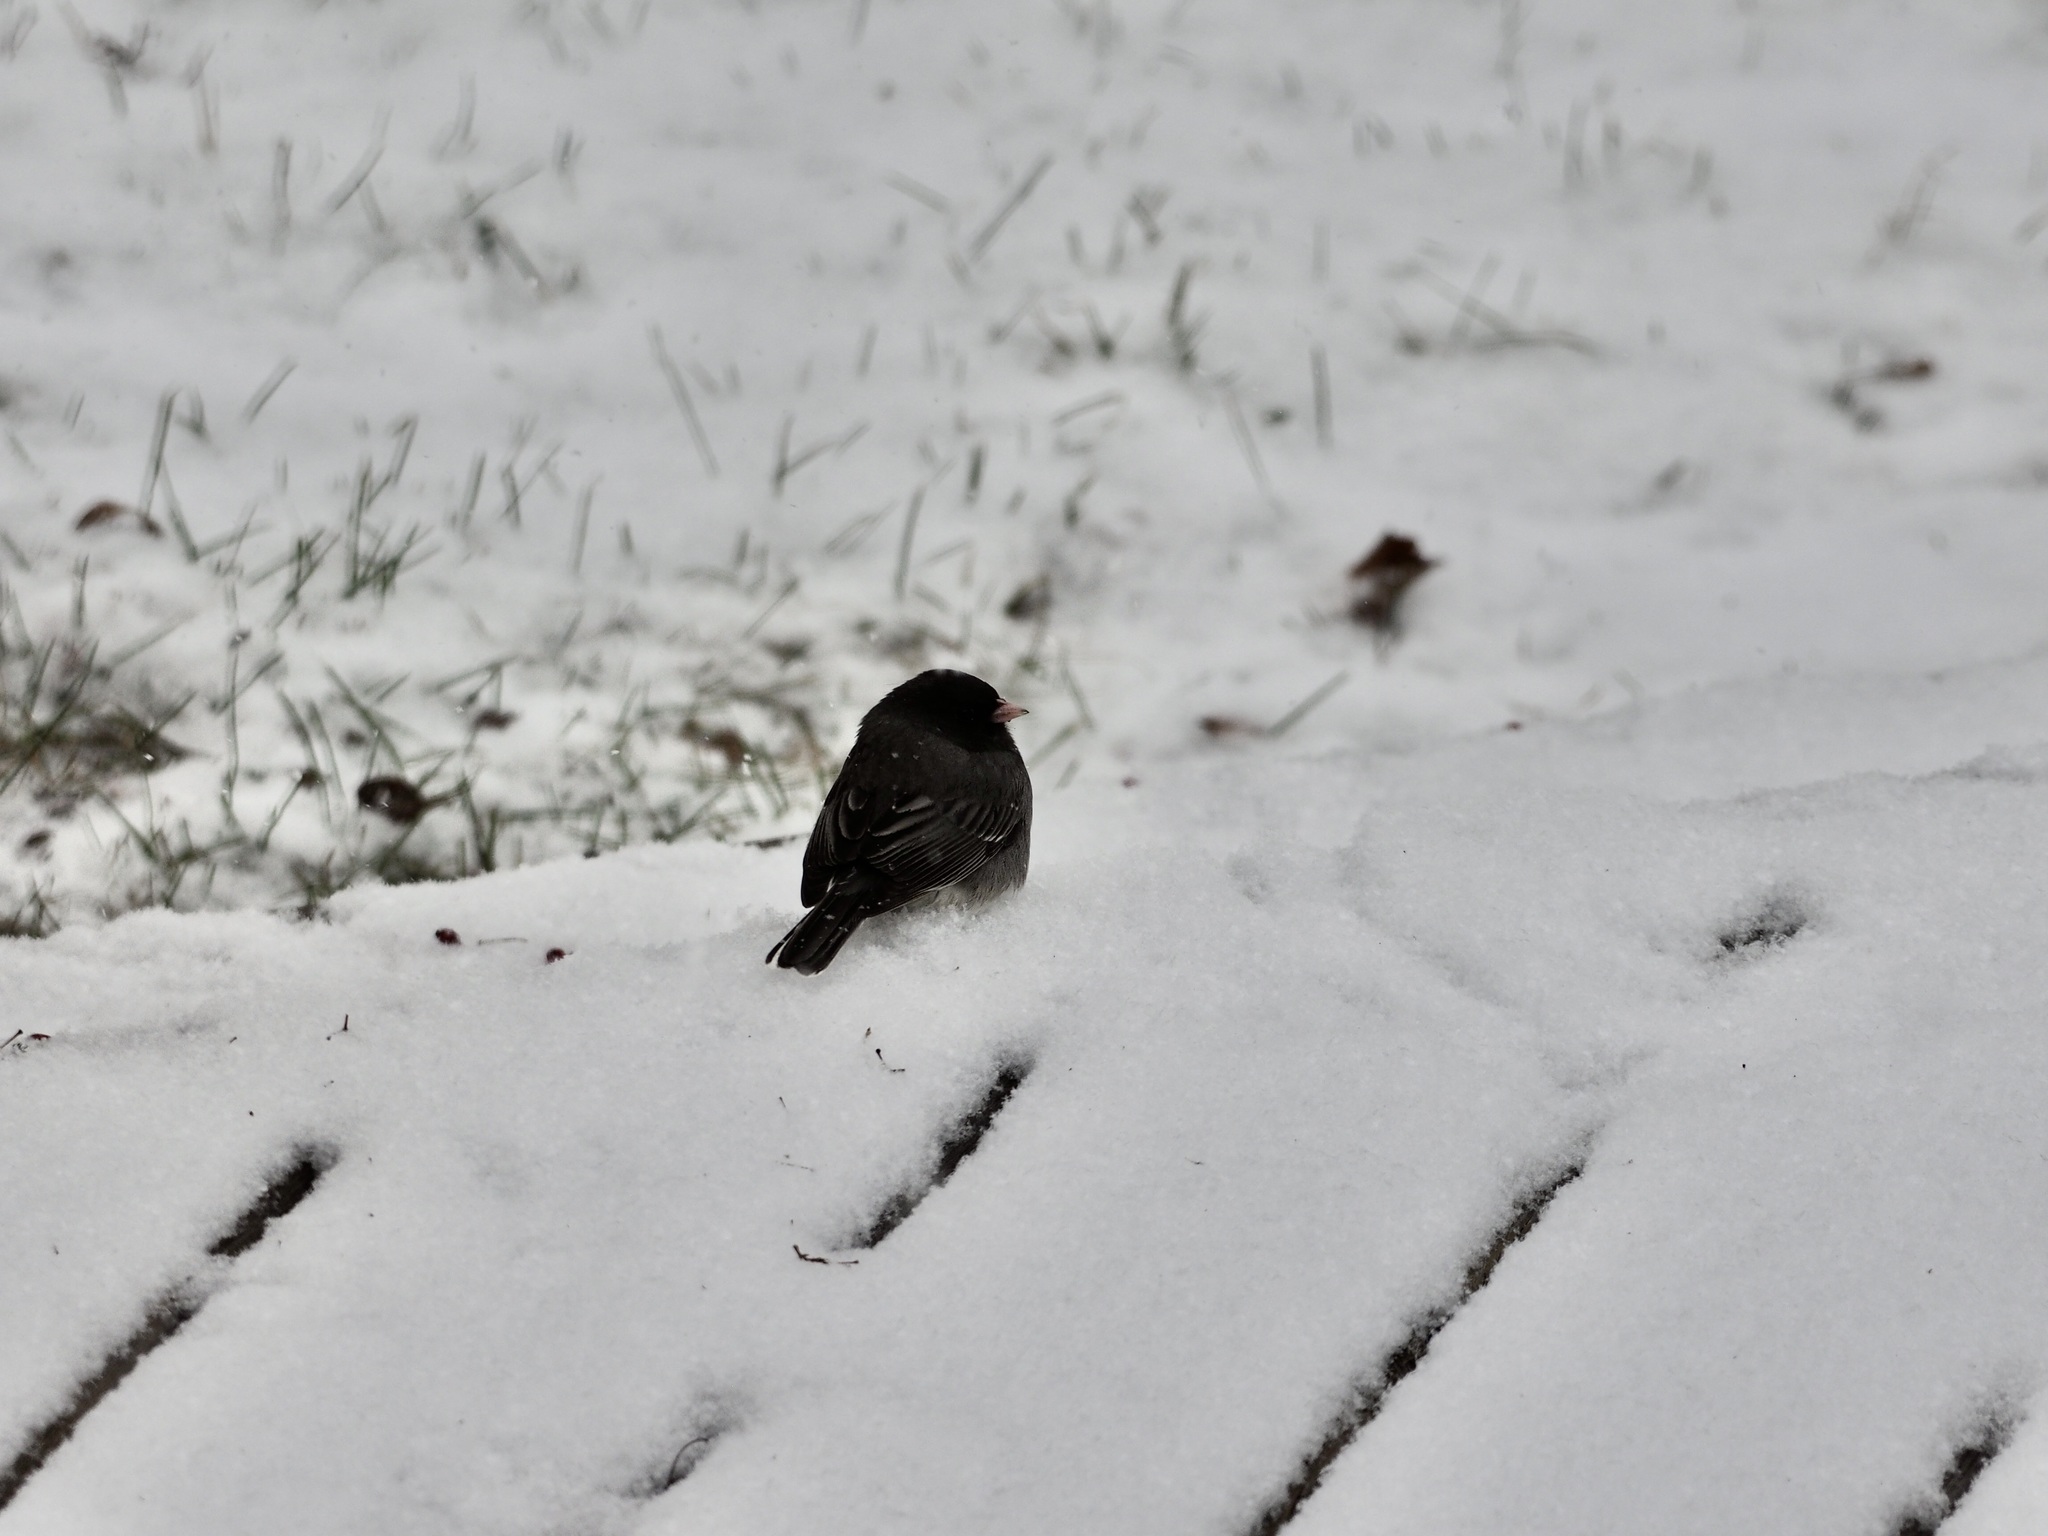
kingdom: Animalia
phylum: Chordata
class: Aves
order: Passeriformes
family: Passerellidae
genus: Junco
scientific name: Junco hyemalis
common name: Dark-eyed junco
